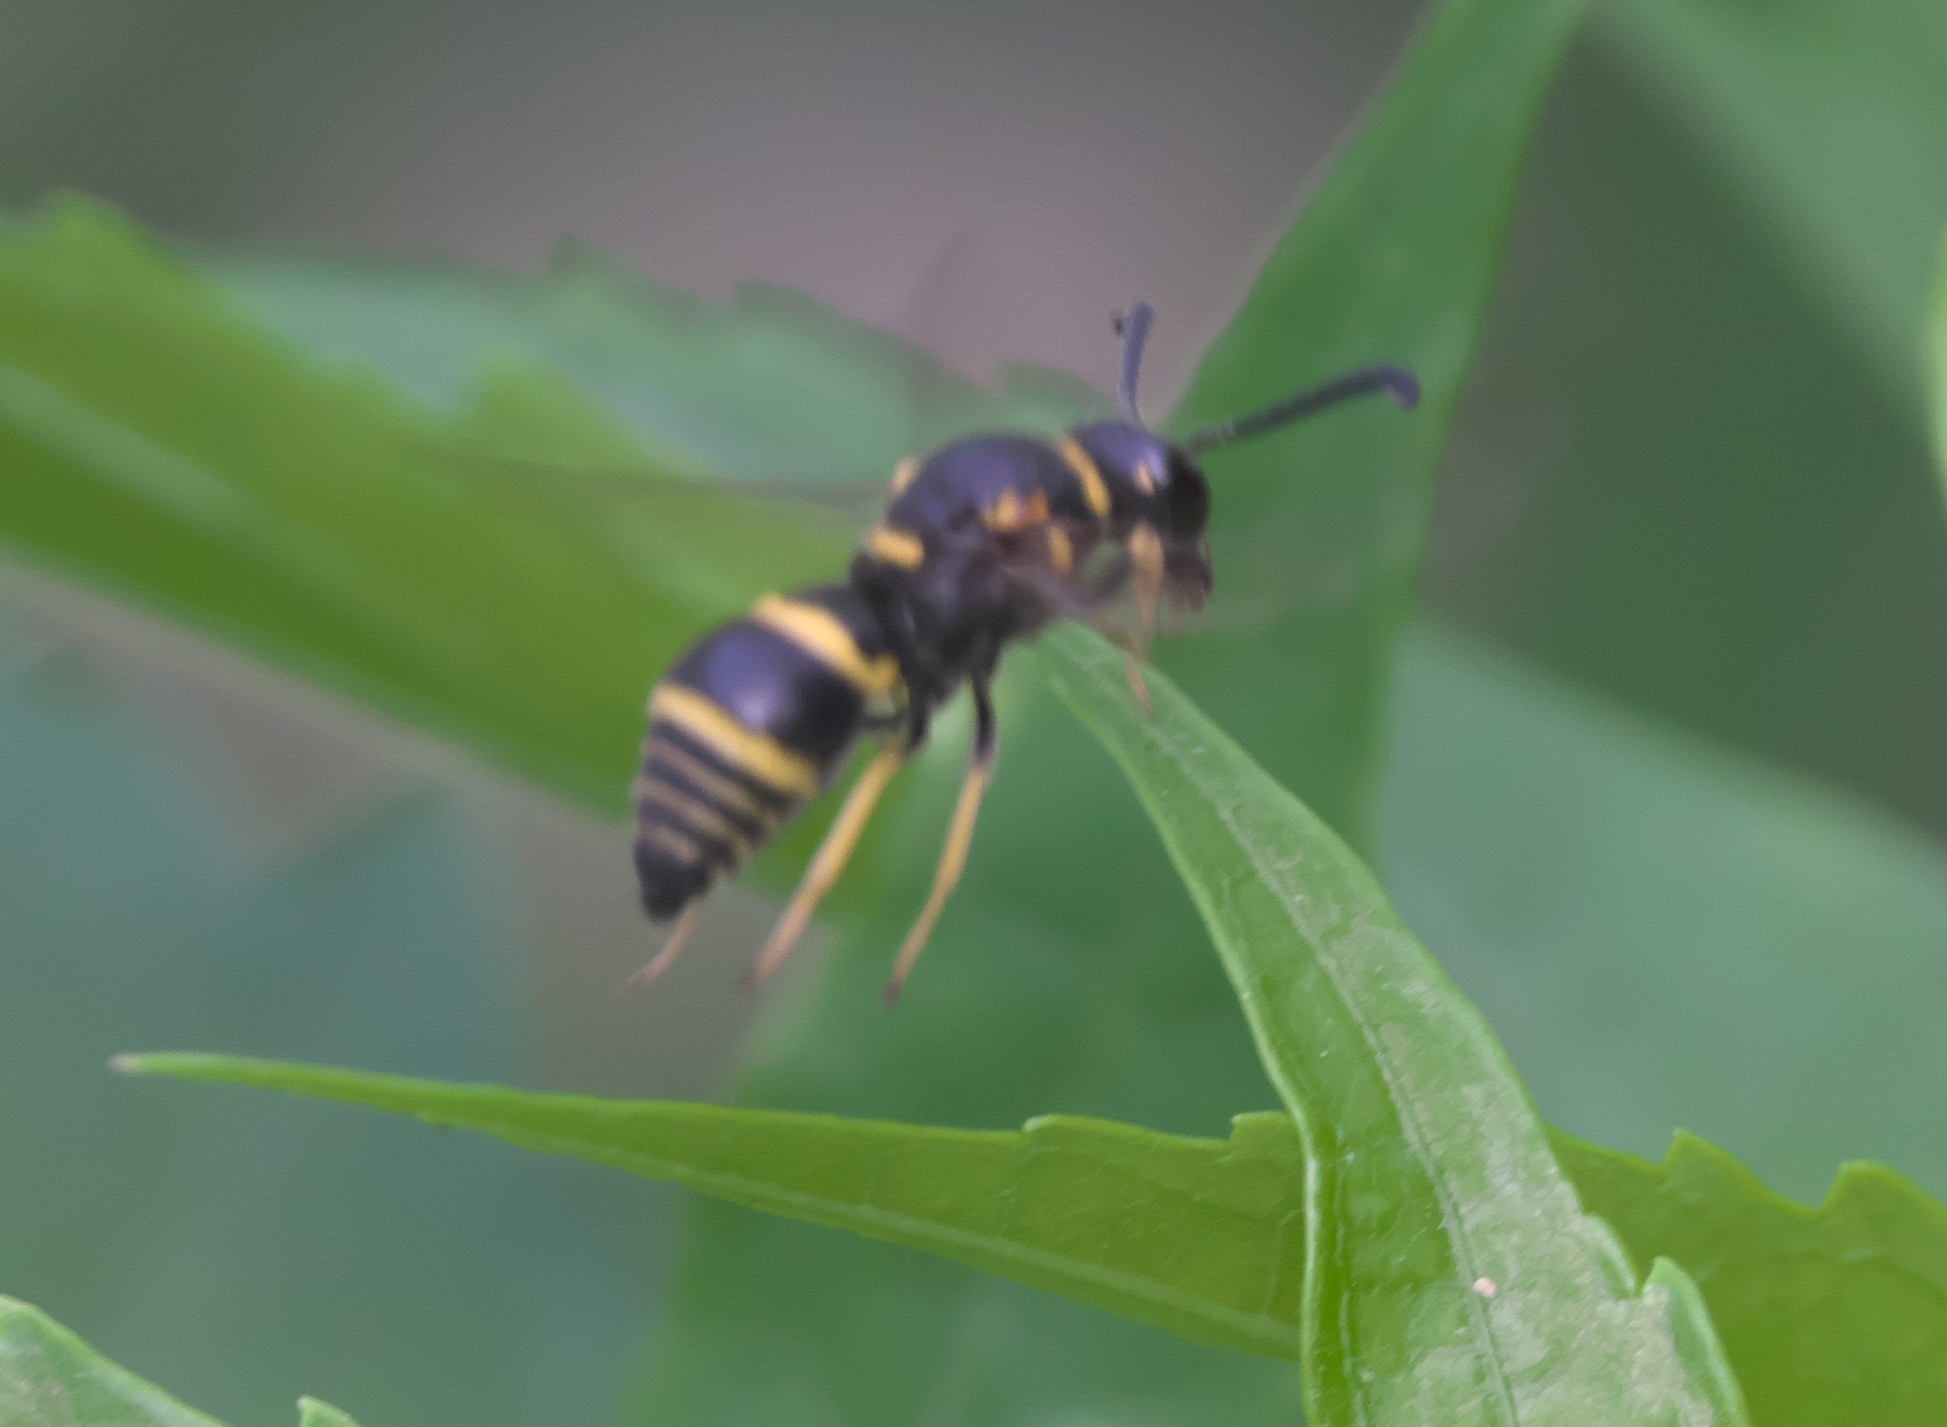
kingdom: Animalia
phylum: Arthropoda
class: Insecta
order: Hymenoptera
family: Eumenidae
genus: Euodynerus
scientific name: Euodynerus foraminatus
